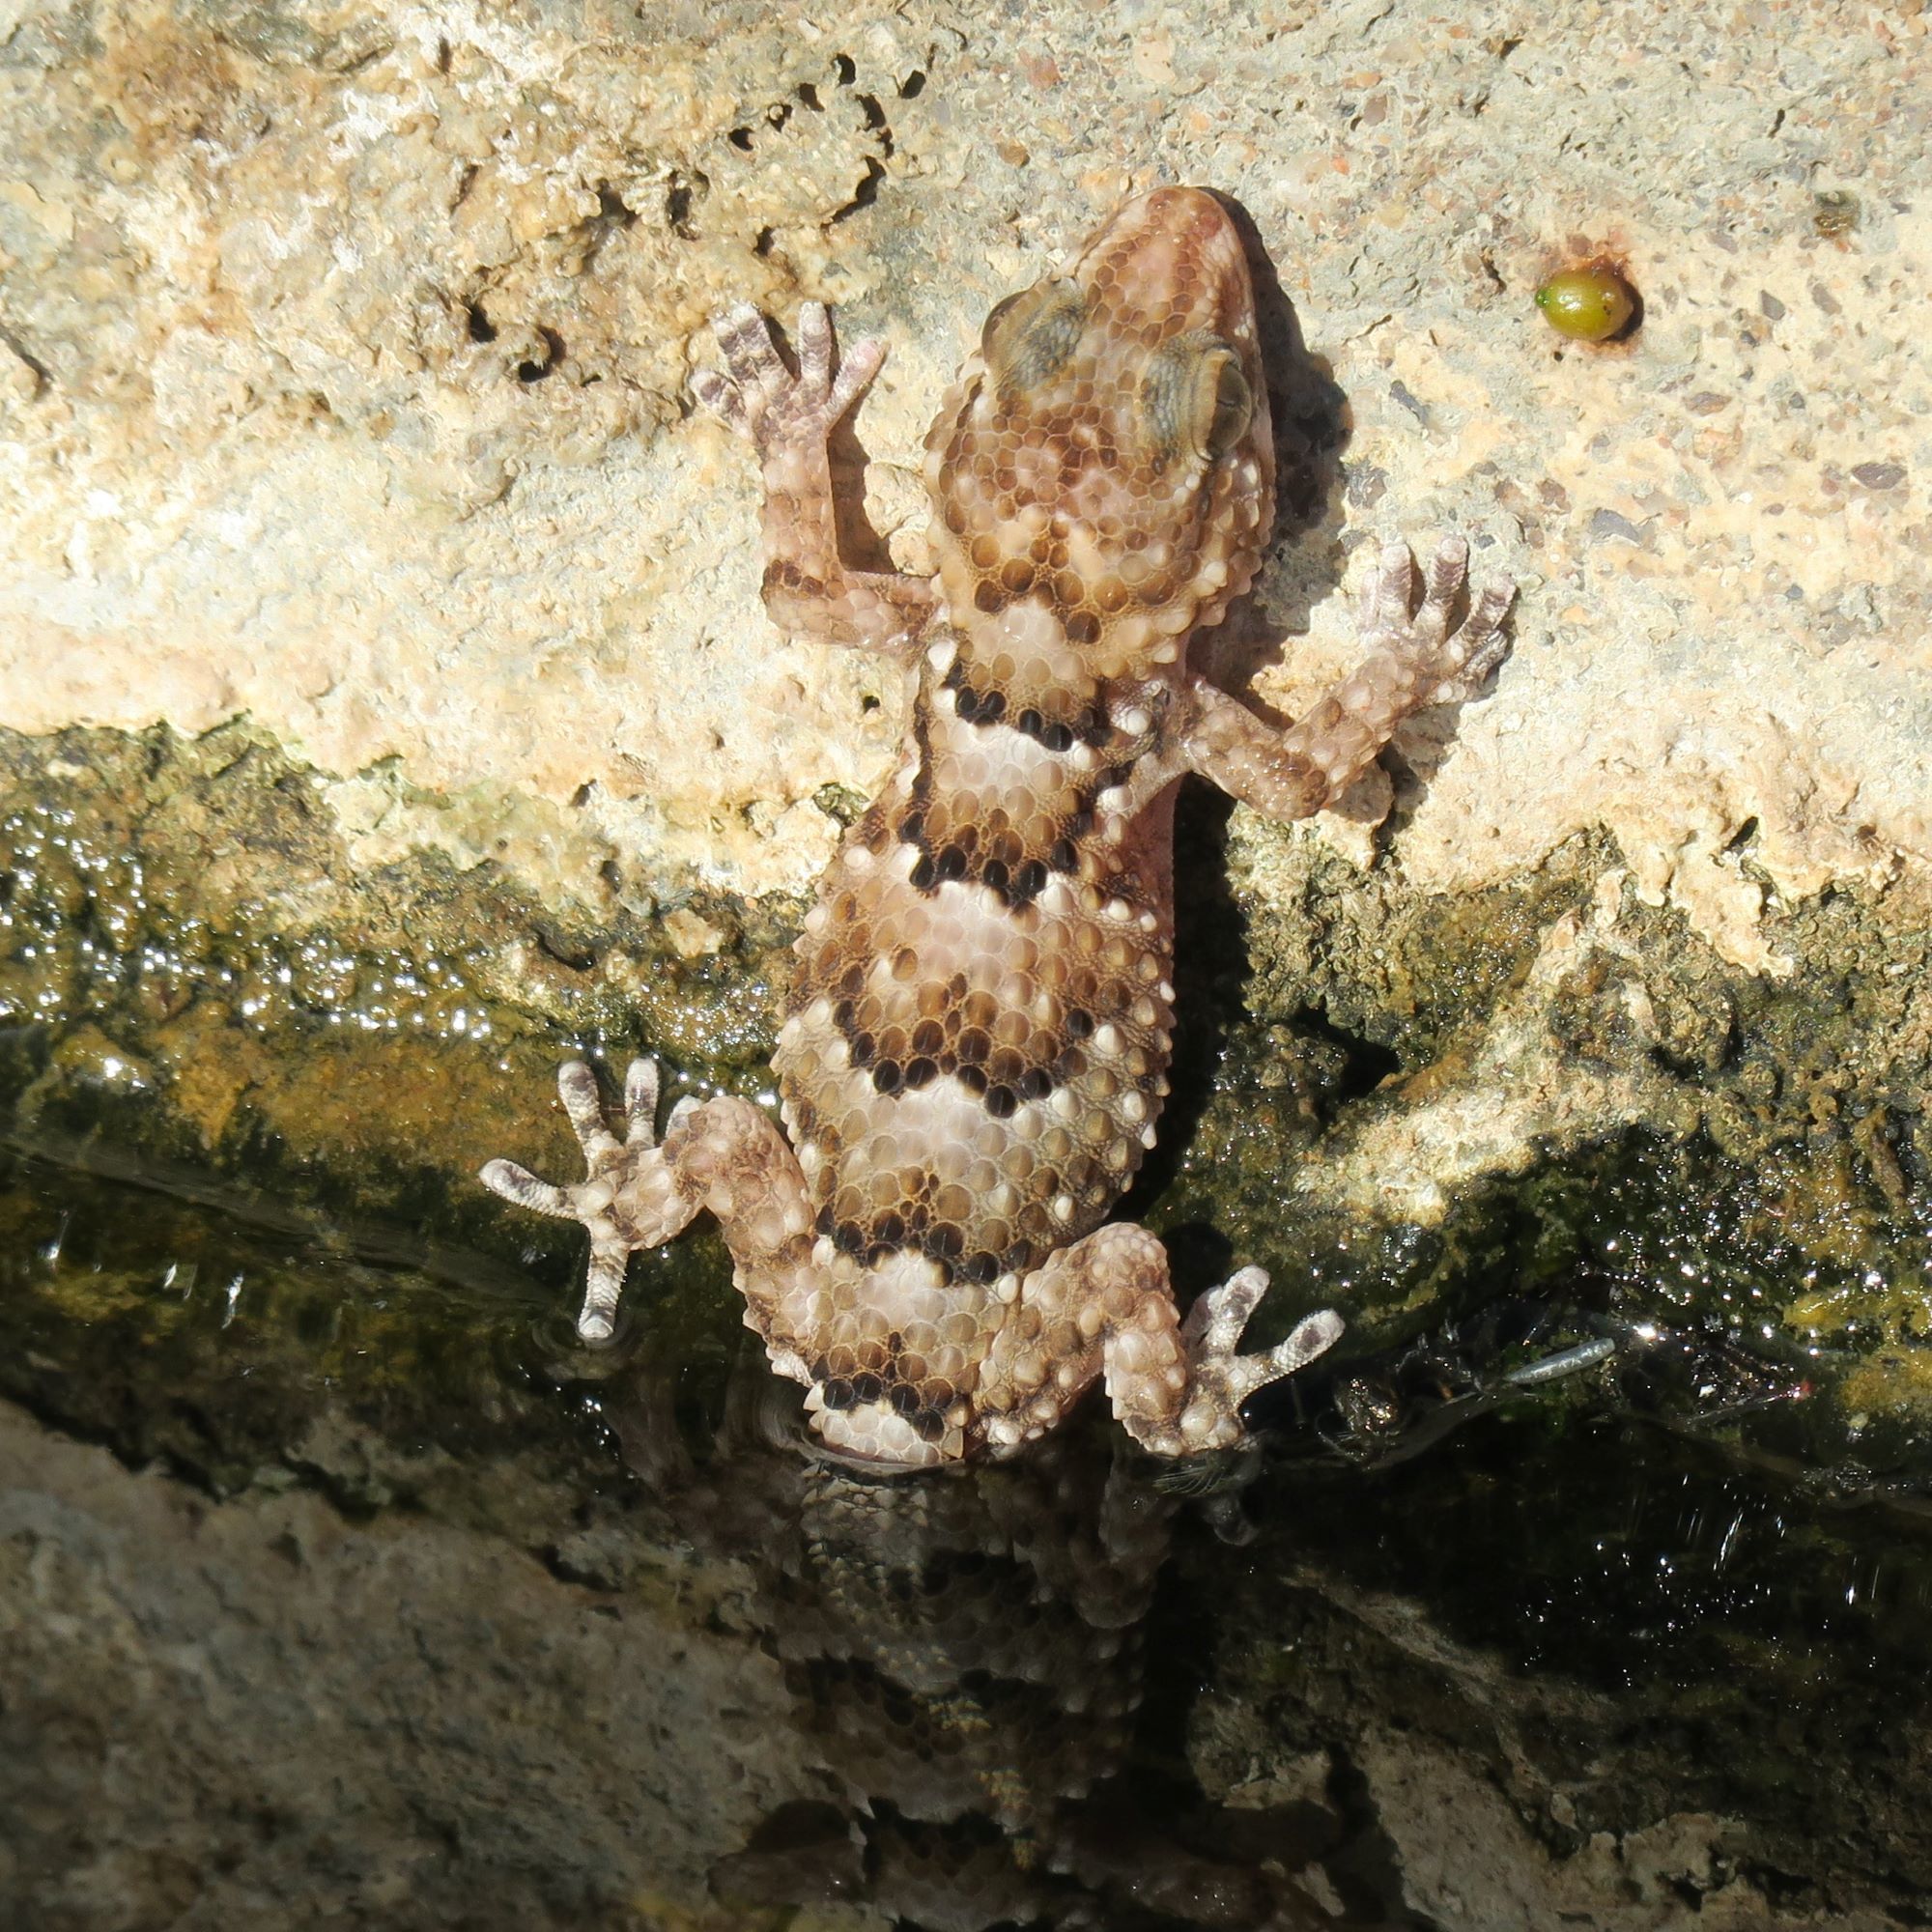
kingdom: Animalia
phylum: Chordata
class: Squamata
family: Gekkonidae
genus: Chondrodactylus
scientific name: Chondrodactylus bibronii
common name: Bibron's gecko
